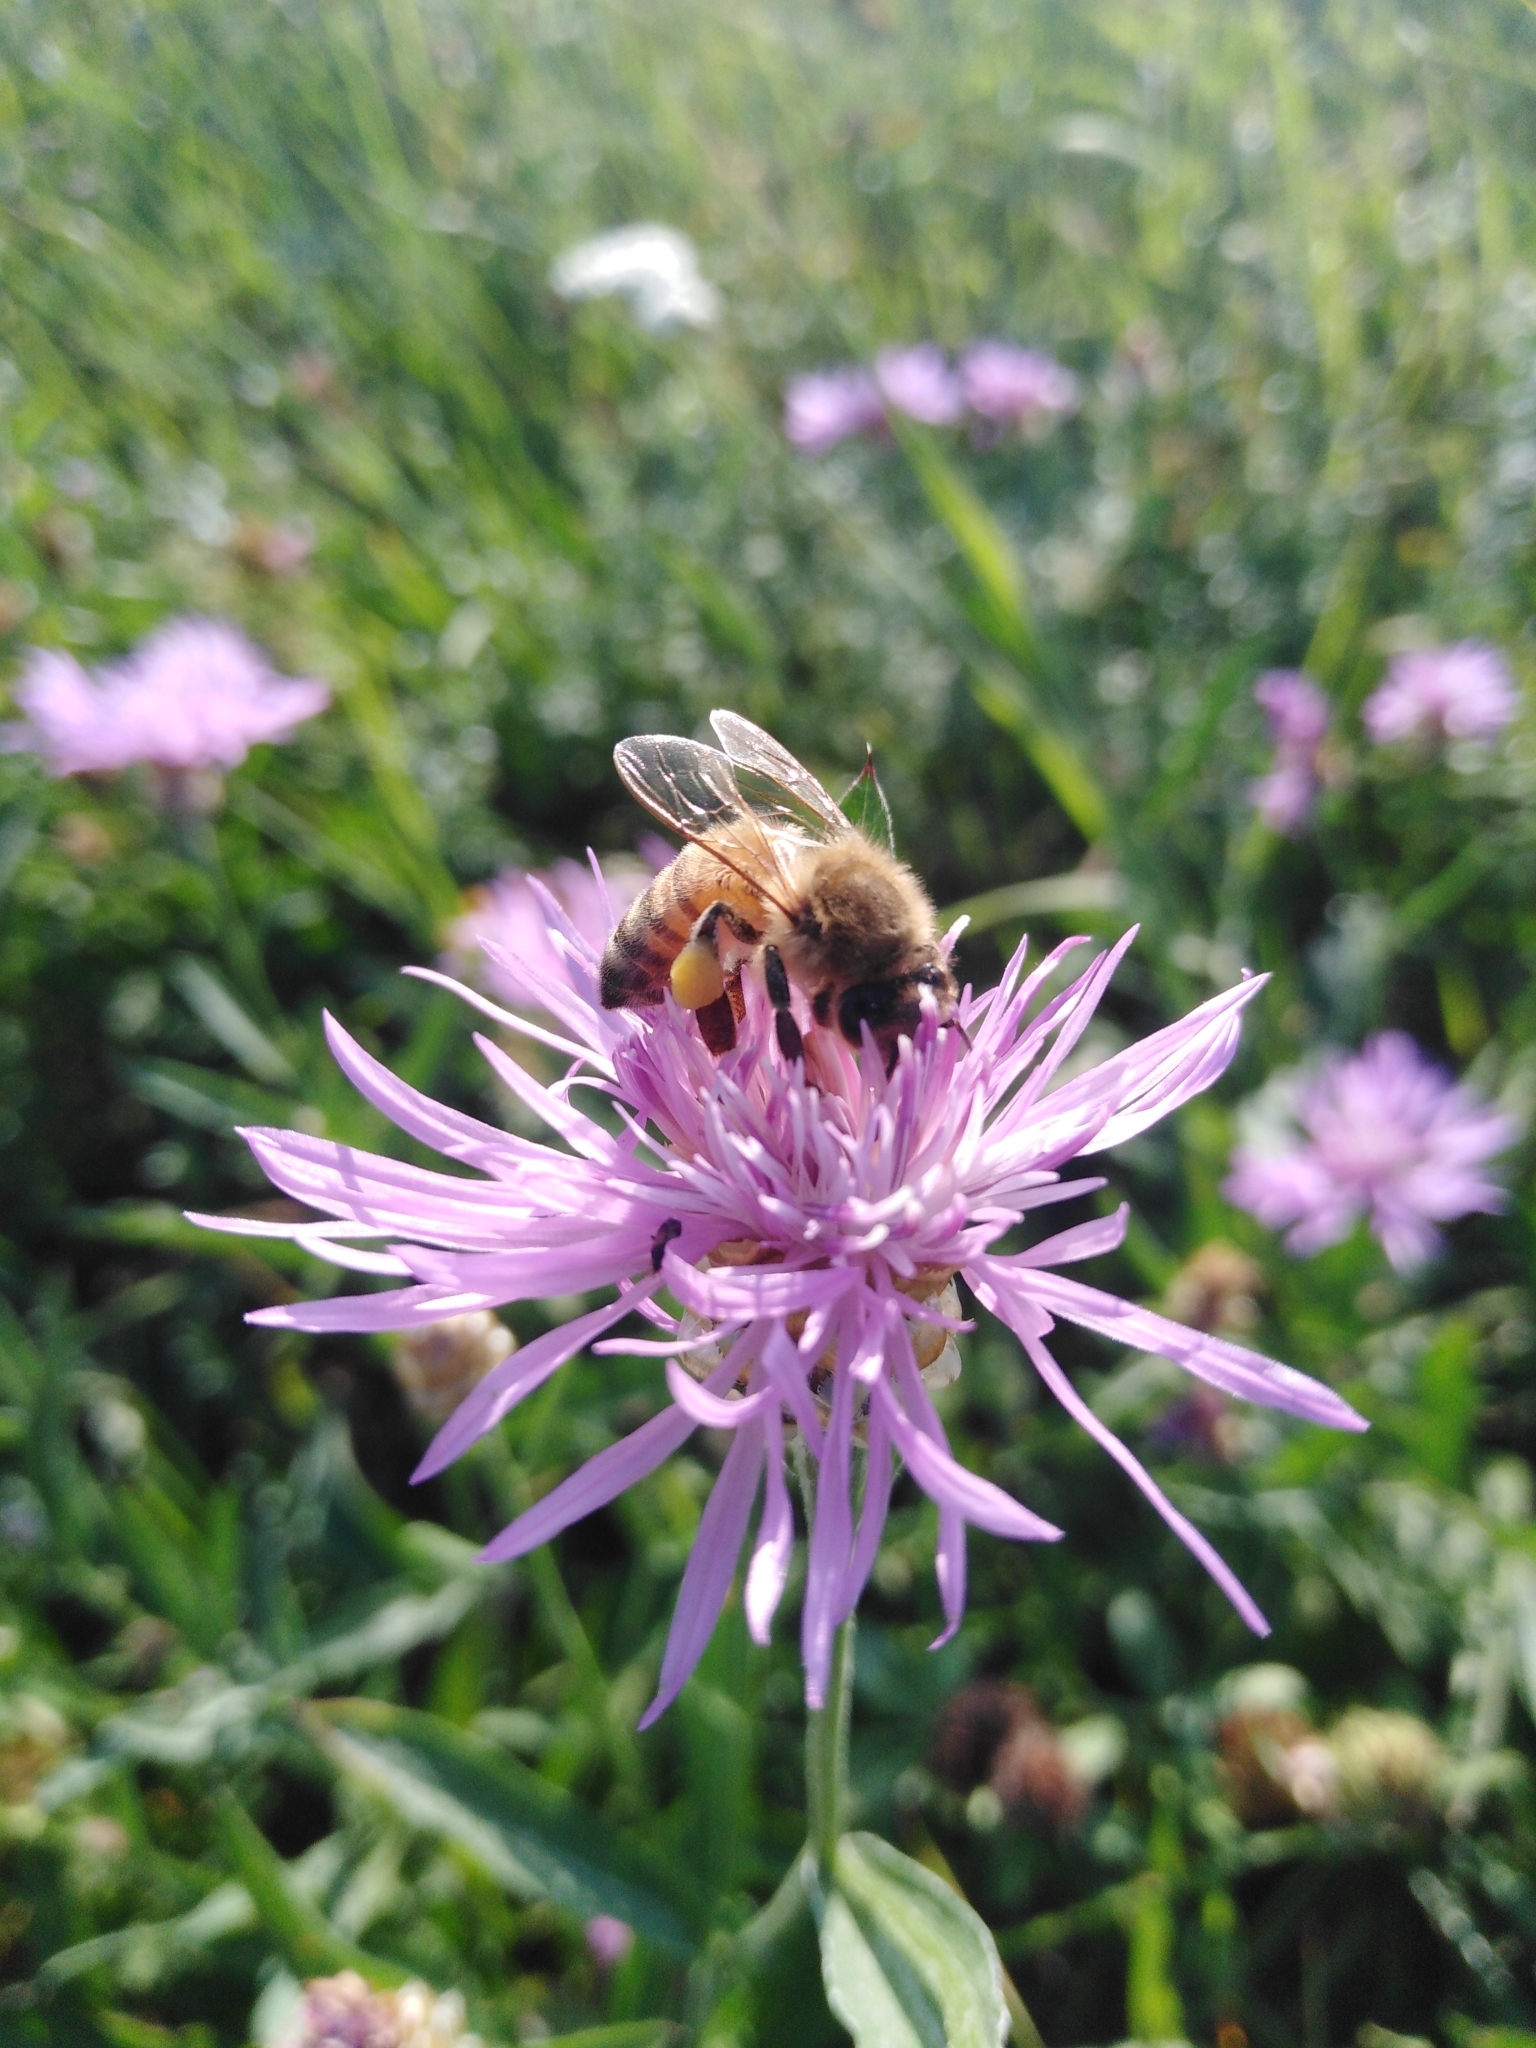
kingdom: Animalia
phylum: Arthropoda
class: Insecta
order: Hymenoptera
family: Apidae
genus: Apis
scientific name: Apis mellifera
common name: Honey bee
